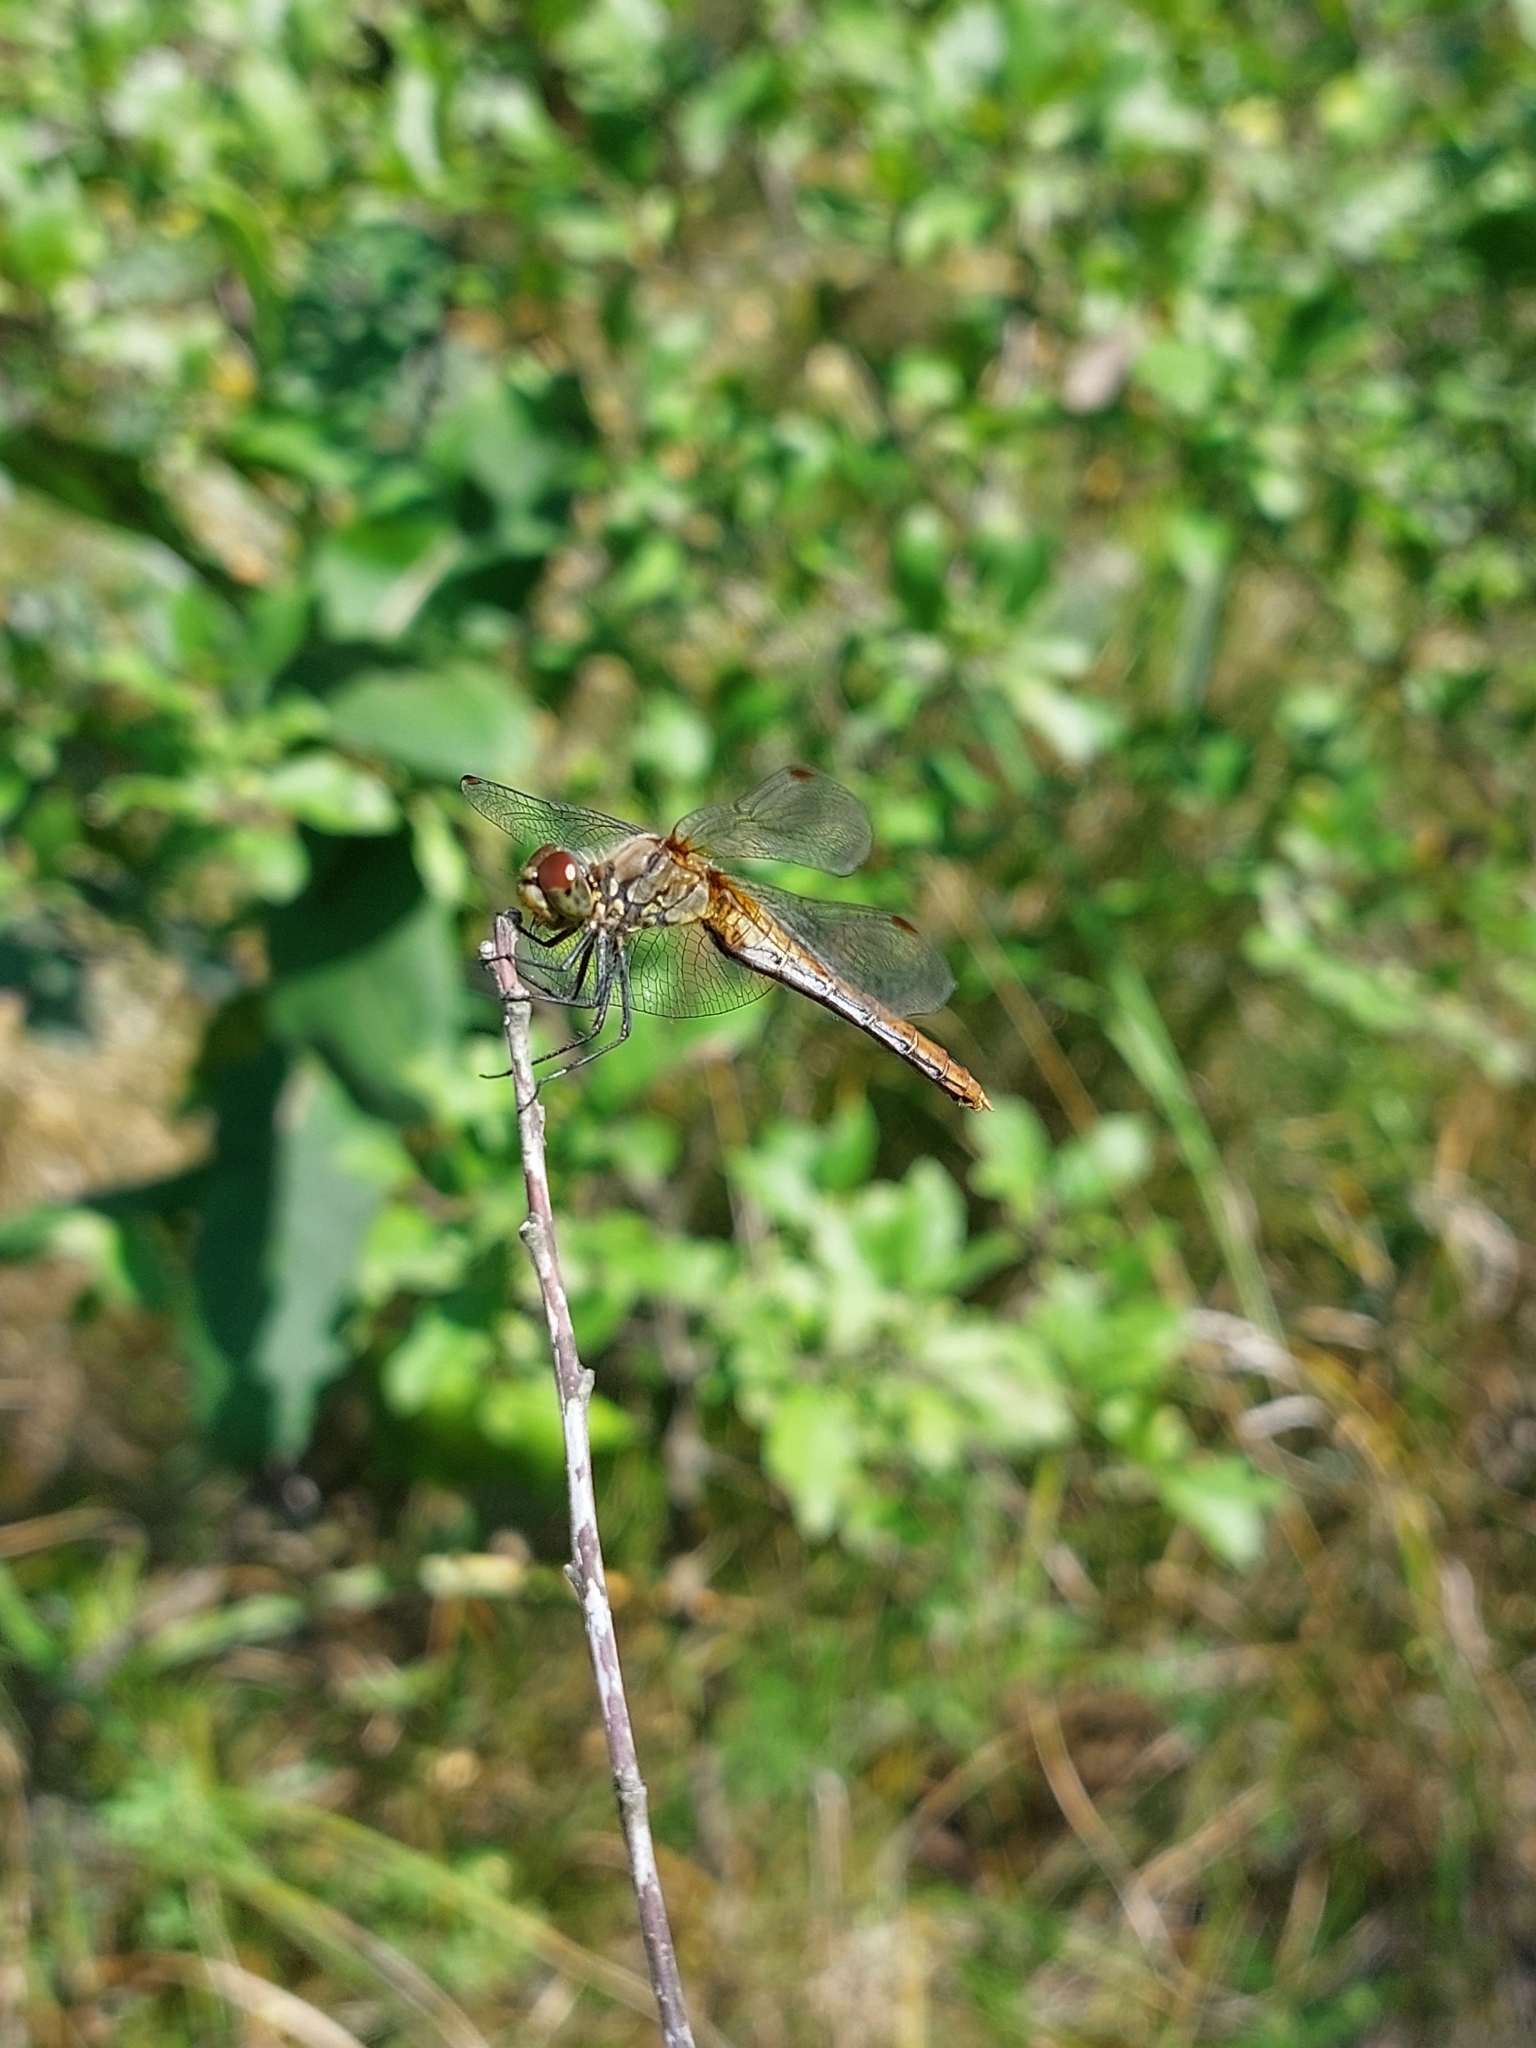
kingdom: Animalia
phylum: Arthropoda
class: Insecta
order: Odonata
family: Libellulidae
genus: Sympetrum
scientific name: Sympetrum sanguineum
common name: Ruddy darter
